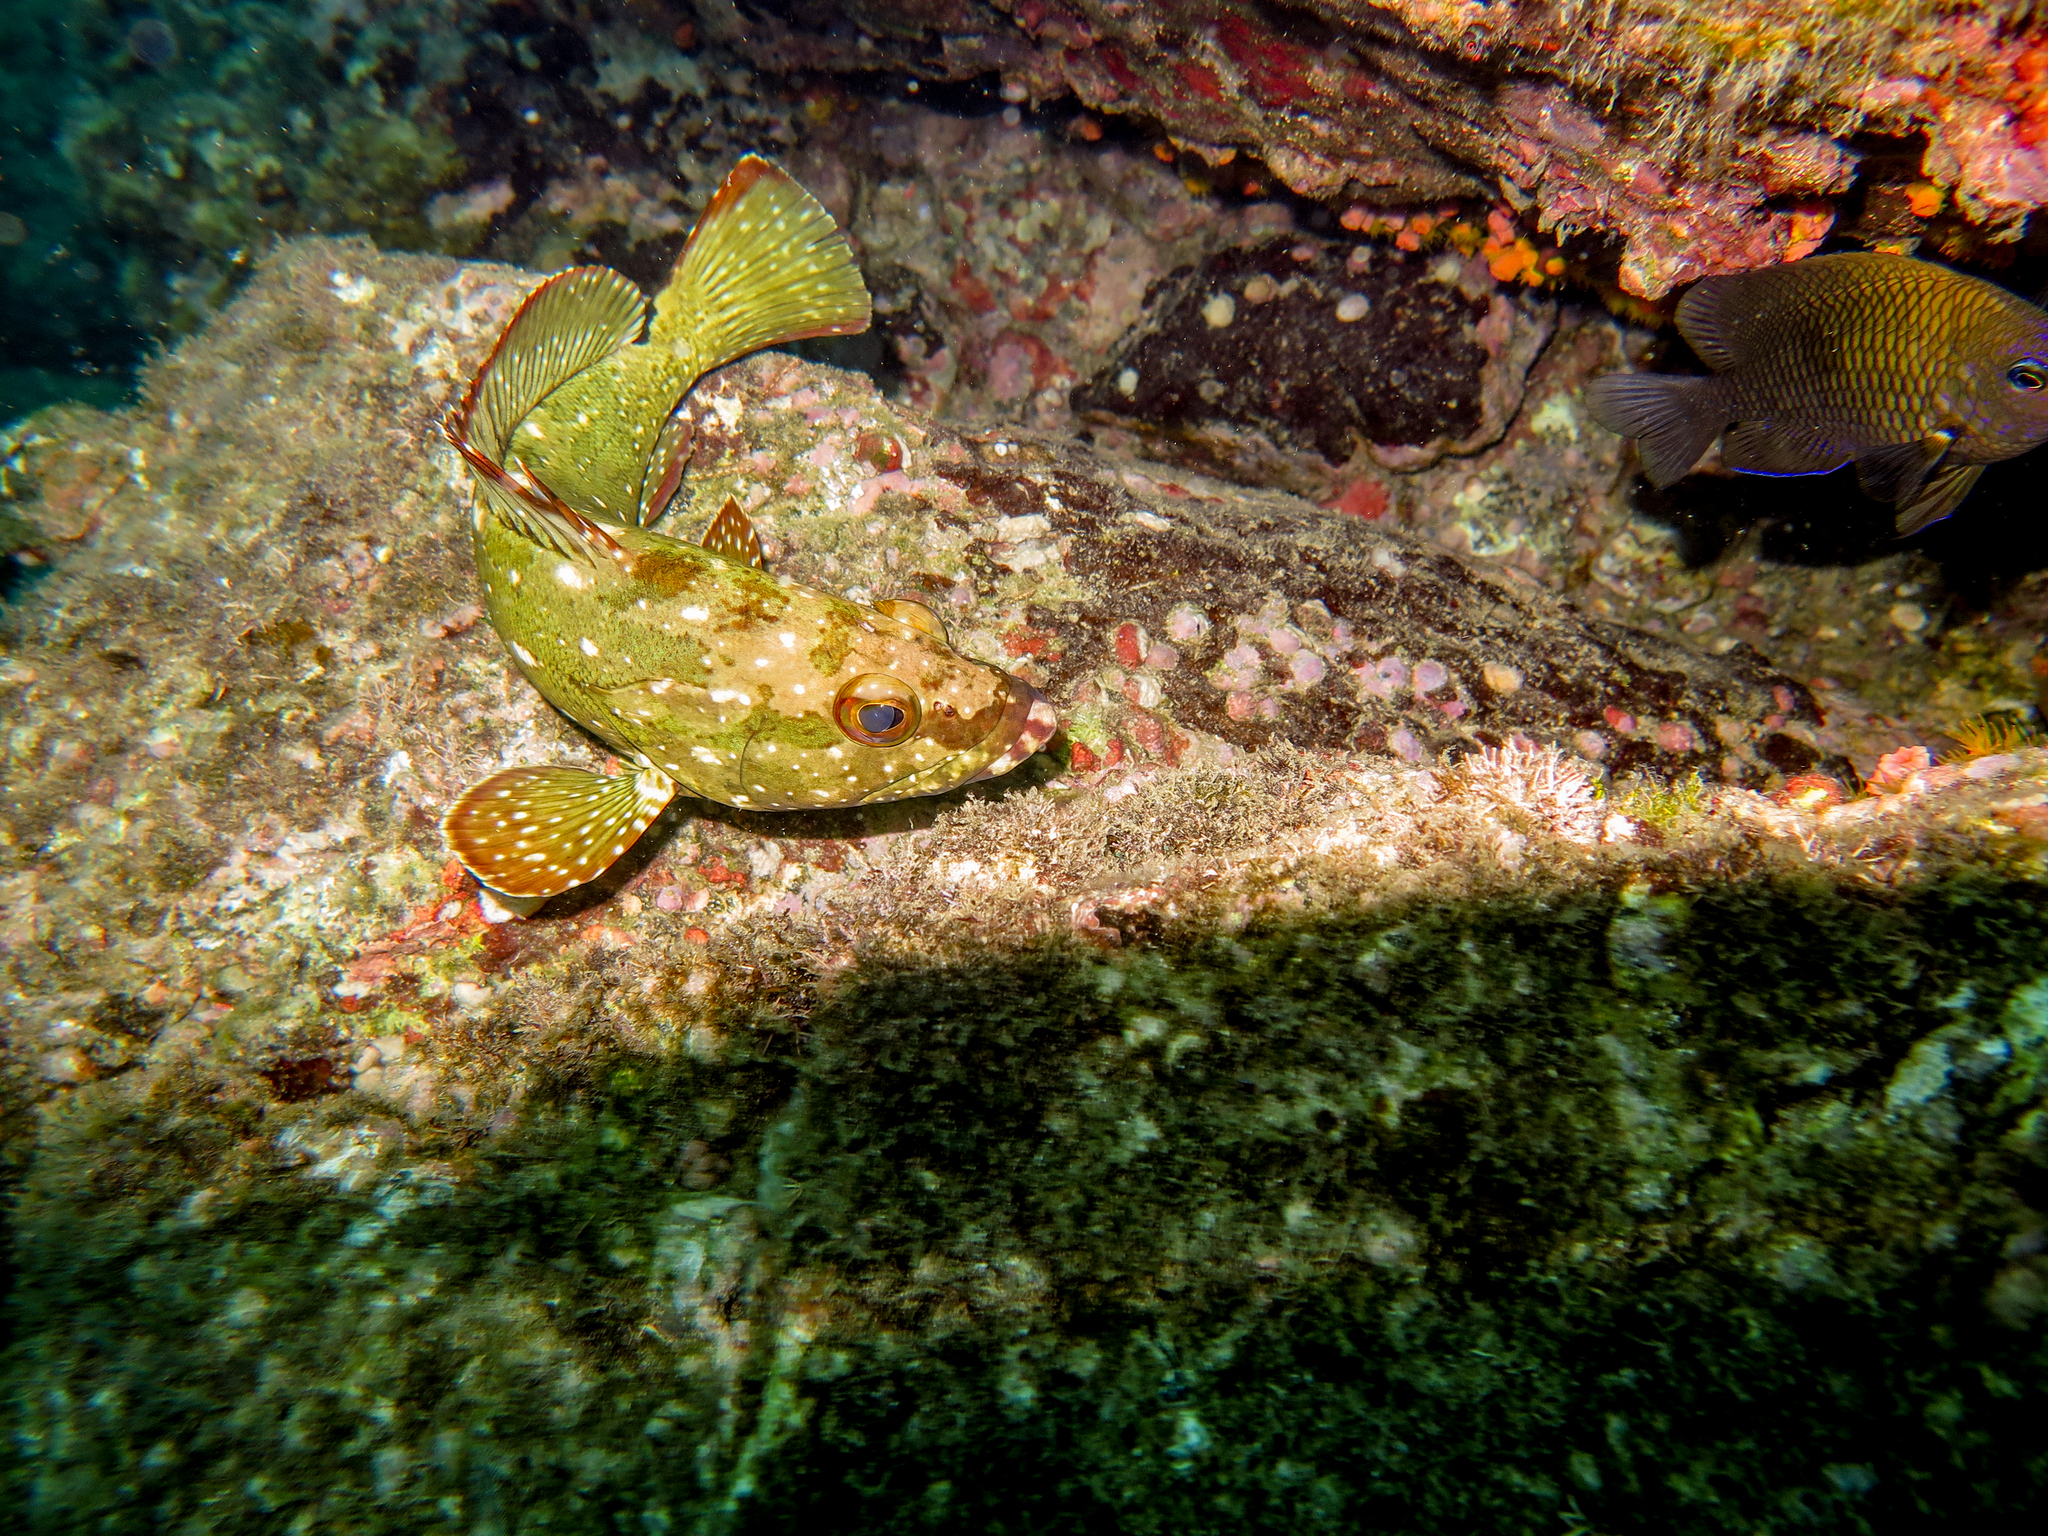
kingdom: Animalia
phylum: Chordata
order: Perciformes
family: Serranidae
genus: Epinephelus
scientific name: Epinephelus labriformis
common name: Flag cabrilla
